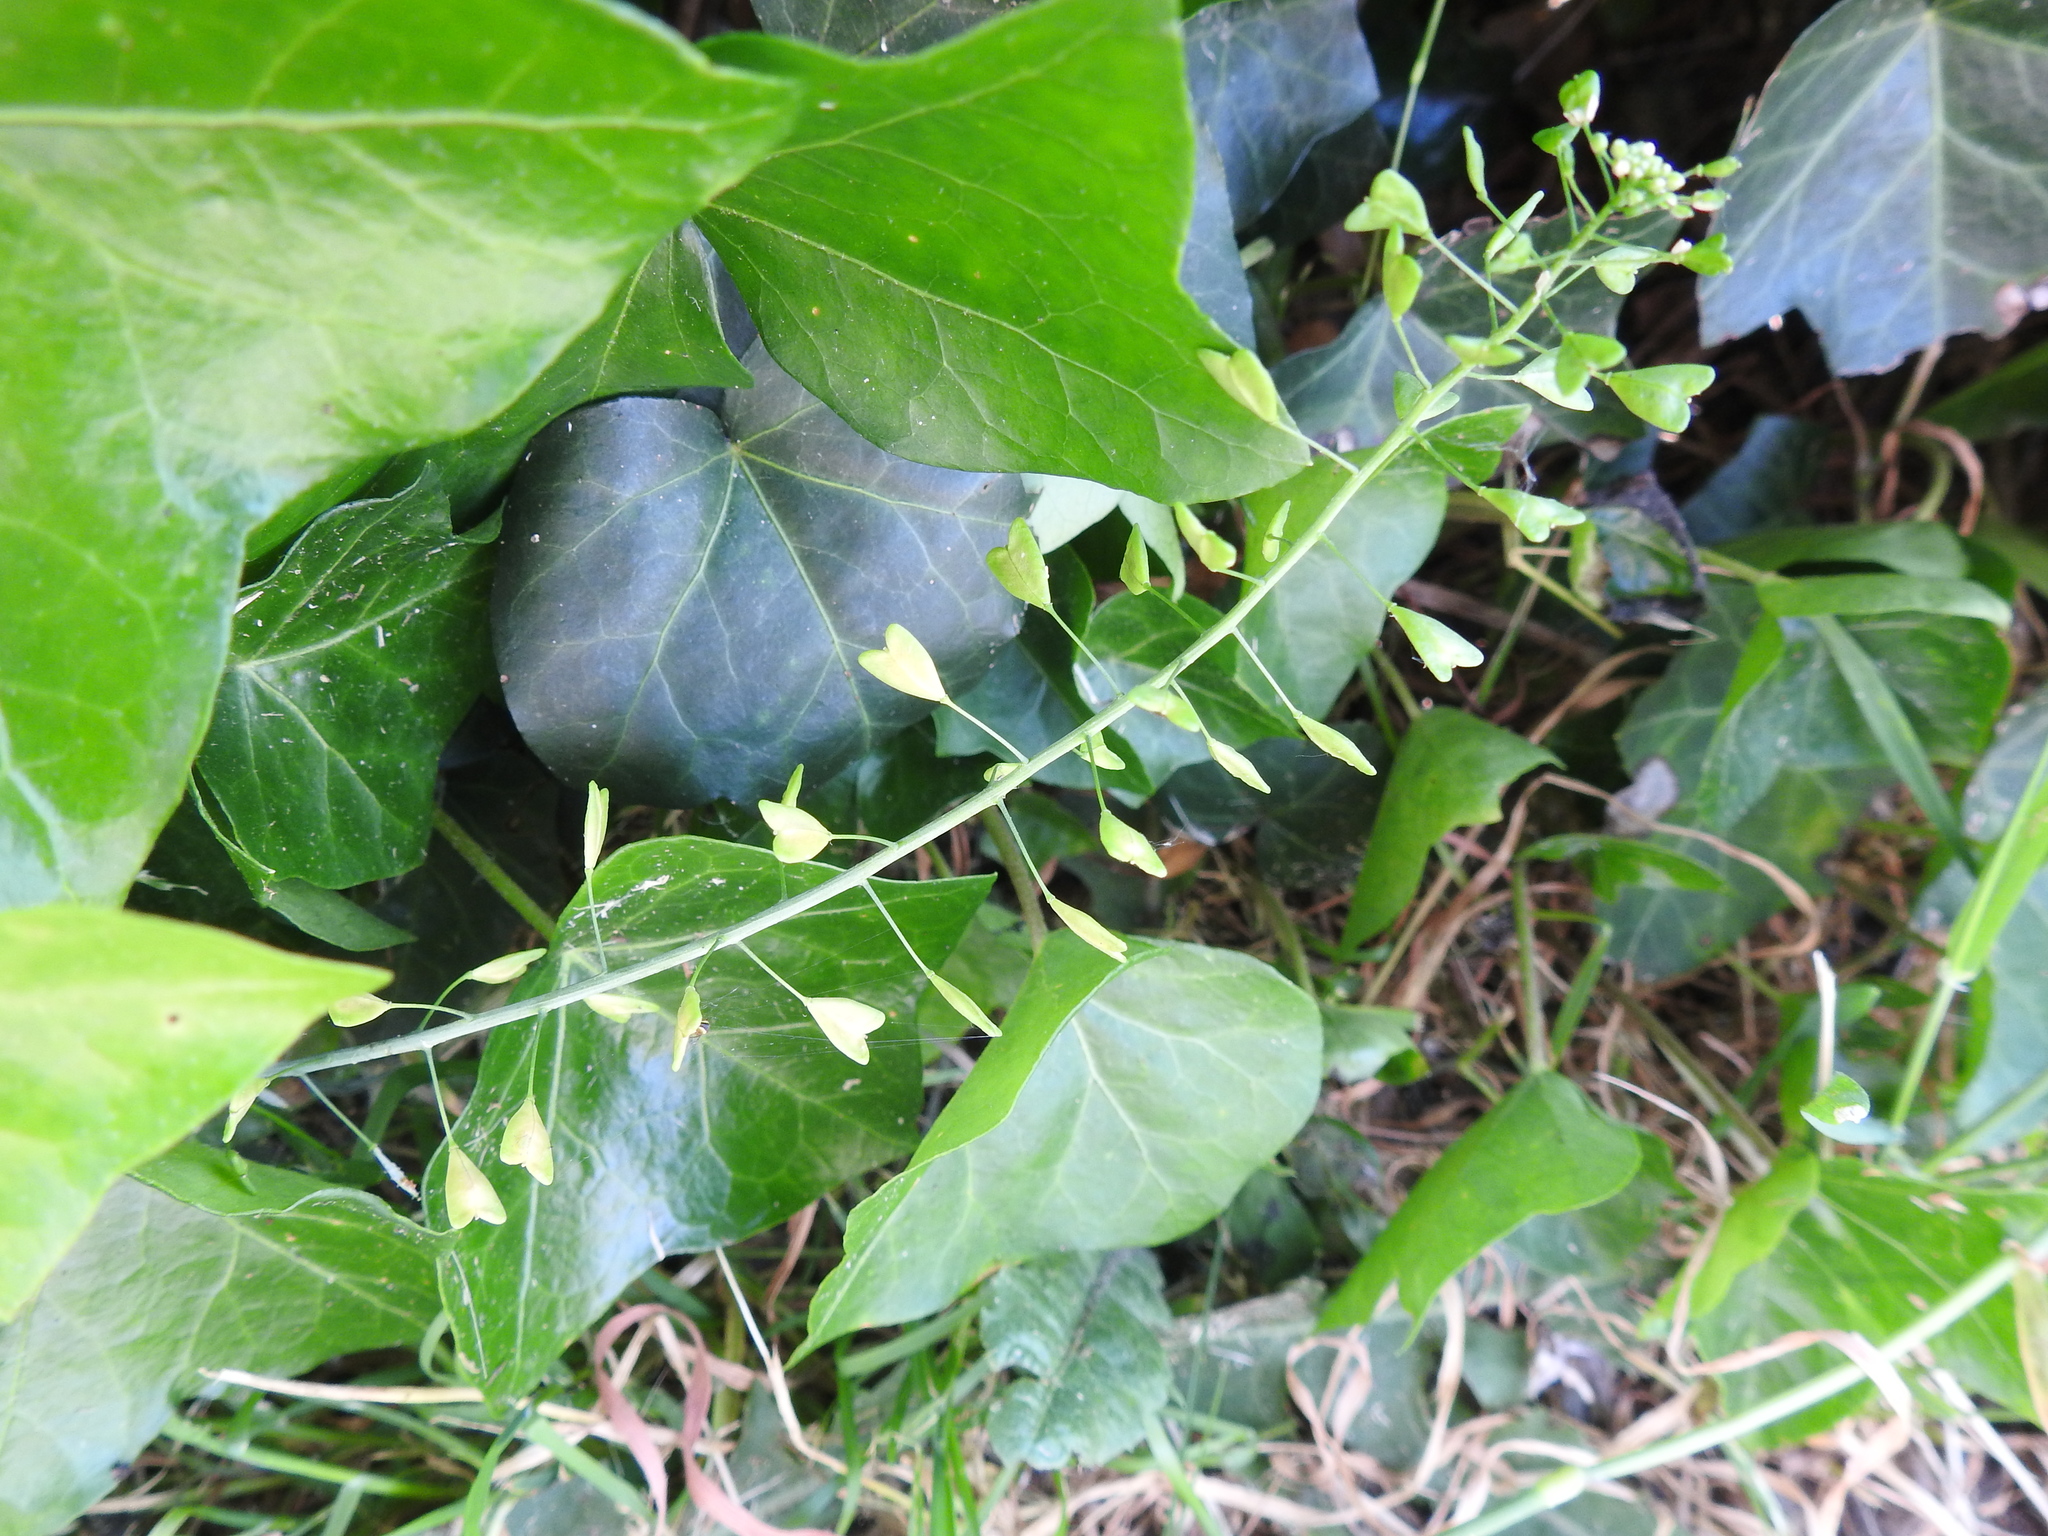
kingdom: Plantae
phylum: Tracheophyta
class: Magnoliopsida
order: Brassicales
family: Brassicaceae
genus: Capsella
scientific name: Capsella bursa-pastoris
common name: Shepherd's purse
